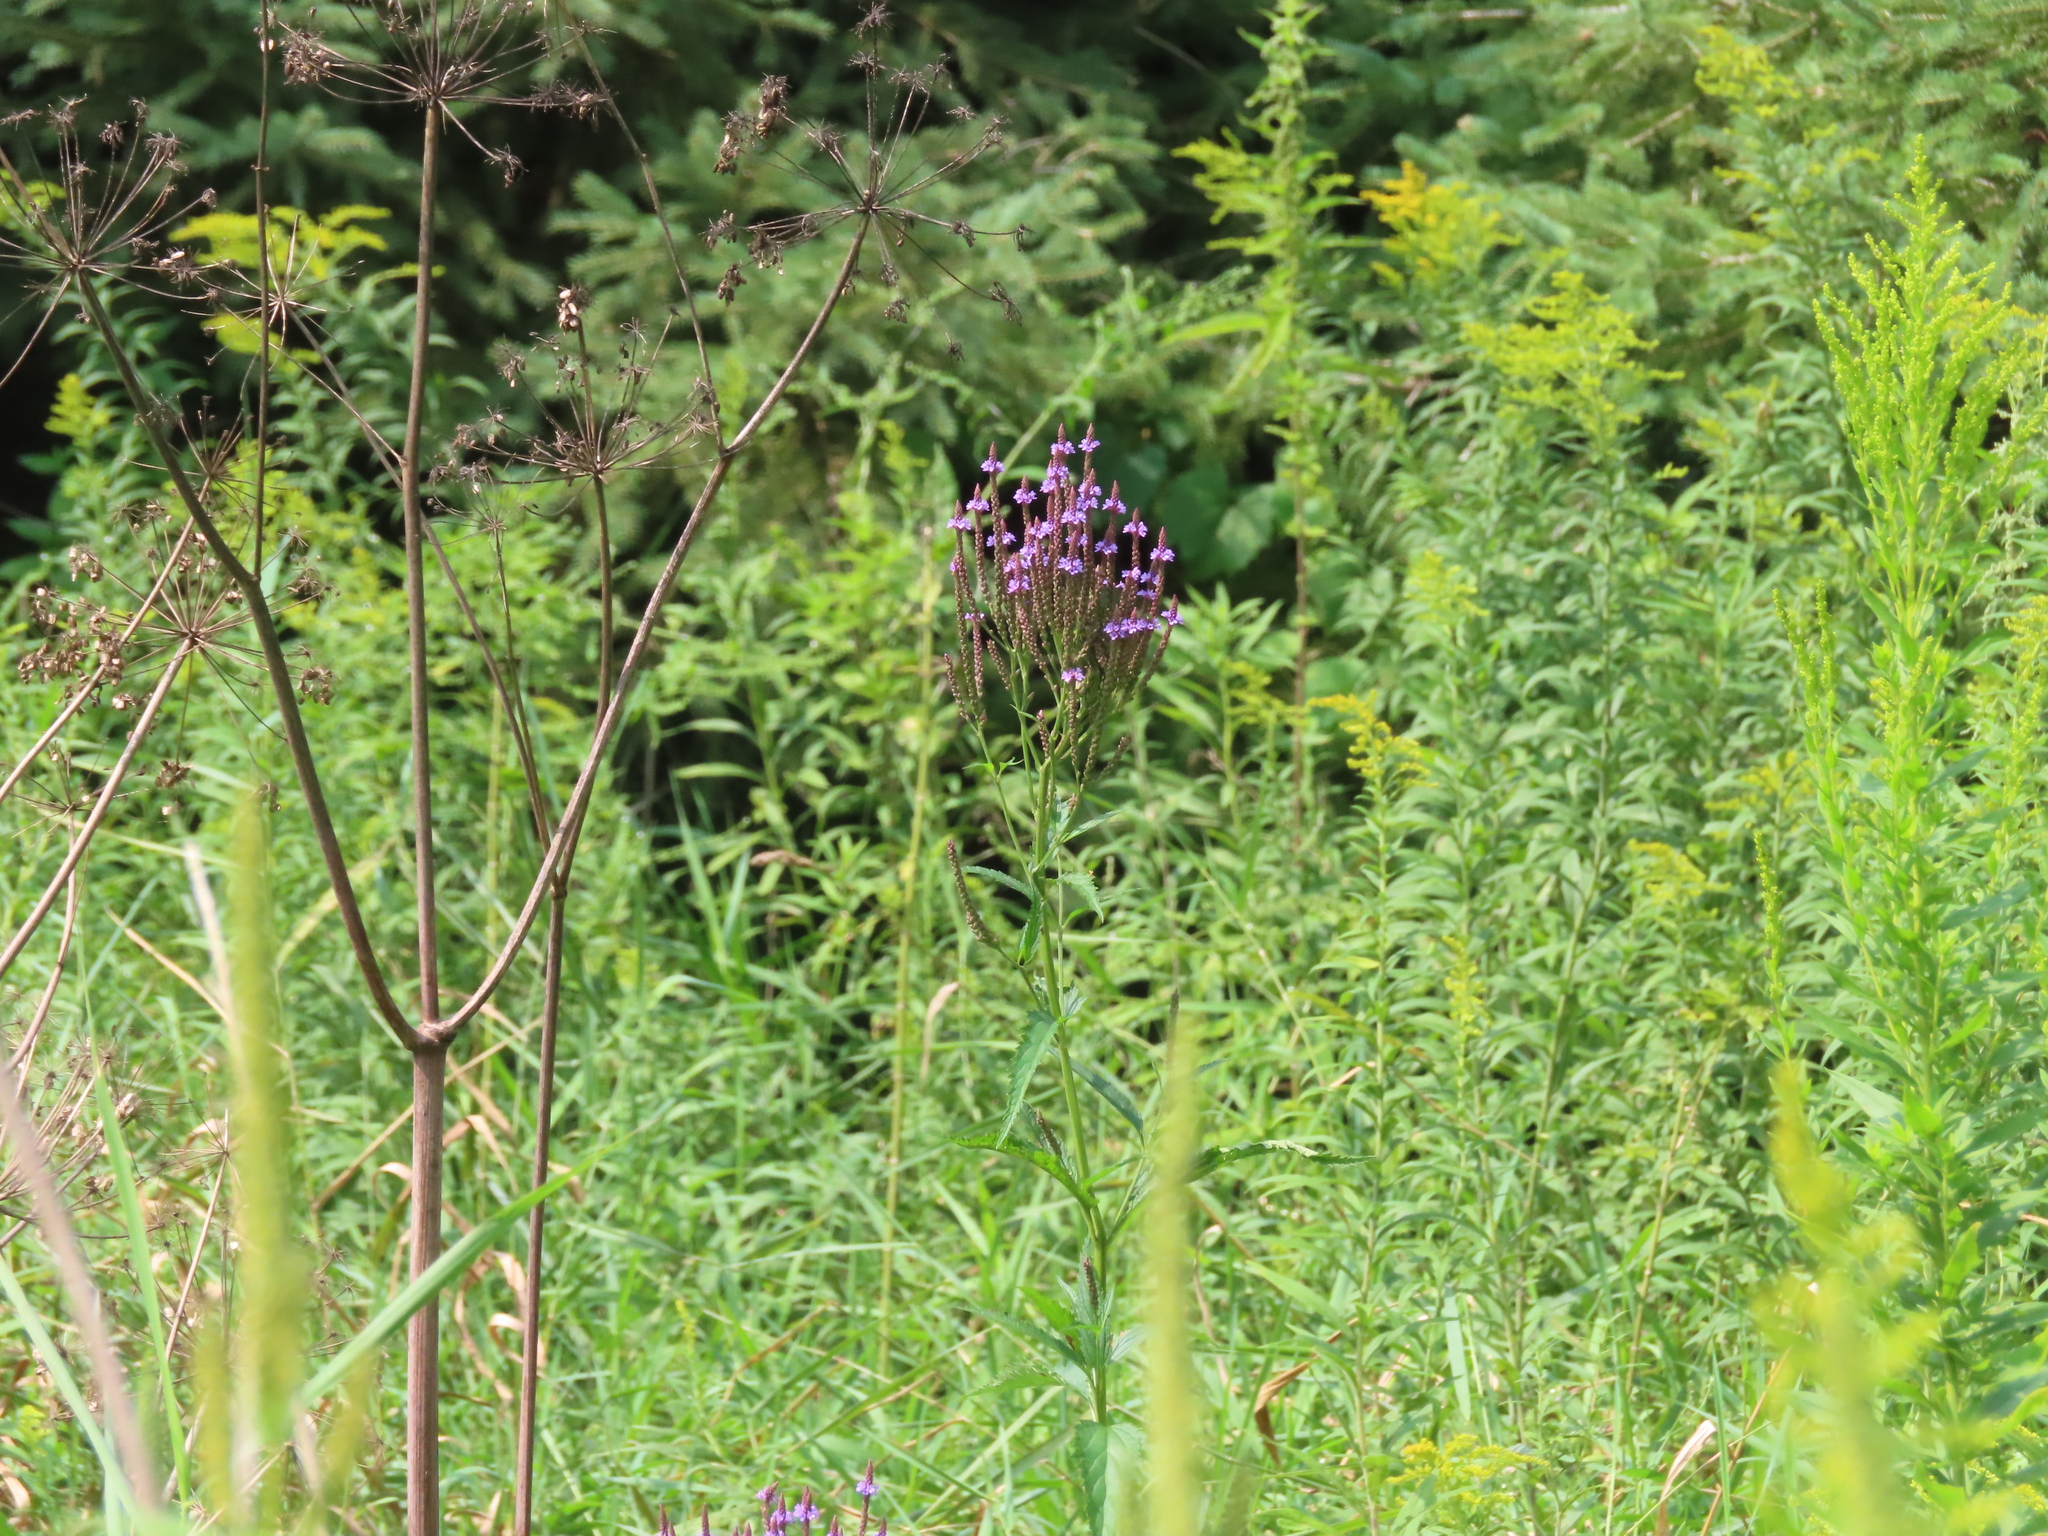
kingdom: Plantae
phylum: Tracheophyta
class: Magnoliopsida
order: Lamiales
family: Verbenaceae
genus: Verbena
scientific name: Verbena hastata
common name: American blue vervain
